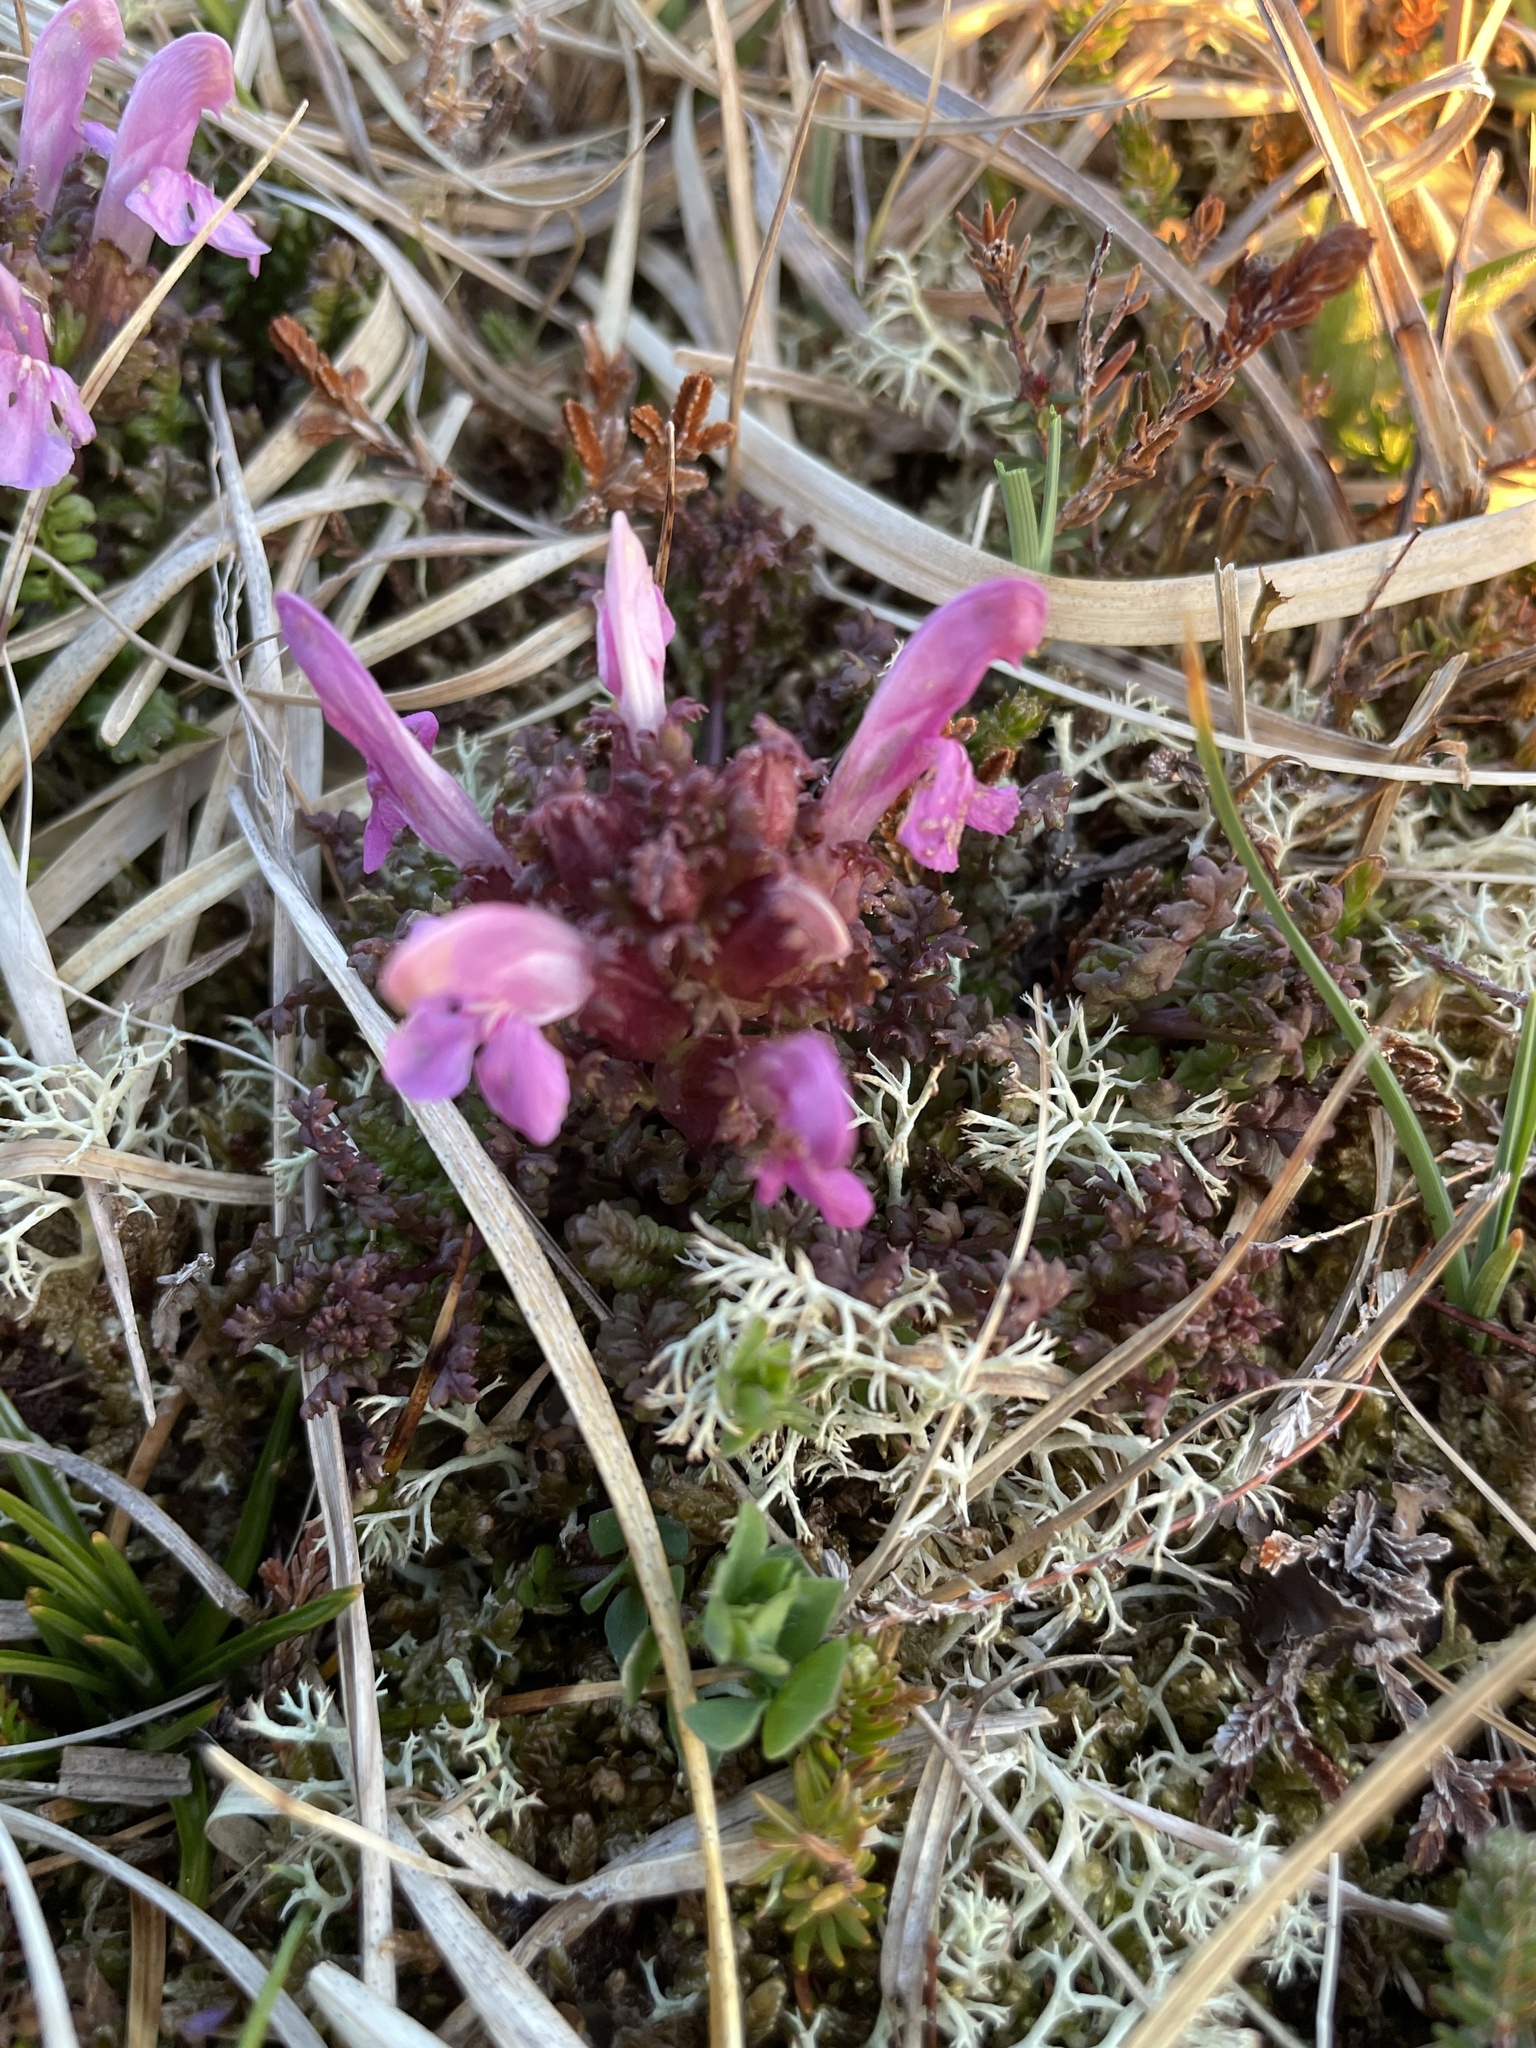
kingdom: Plantae
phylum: Tracheophyta
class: Magnoliopsida
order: Lamiales
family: Orobanchaceae
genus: Pedicularis
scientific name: Pedicularis sylvatica
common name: Lousewort
